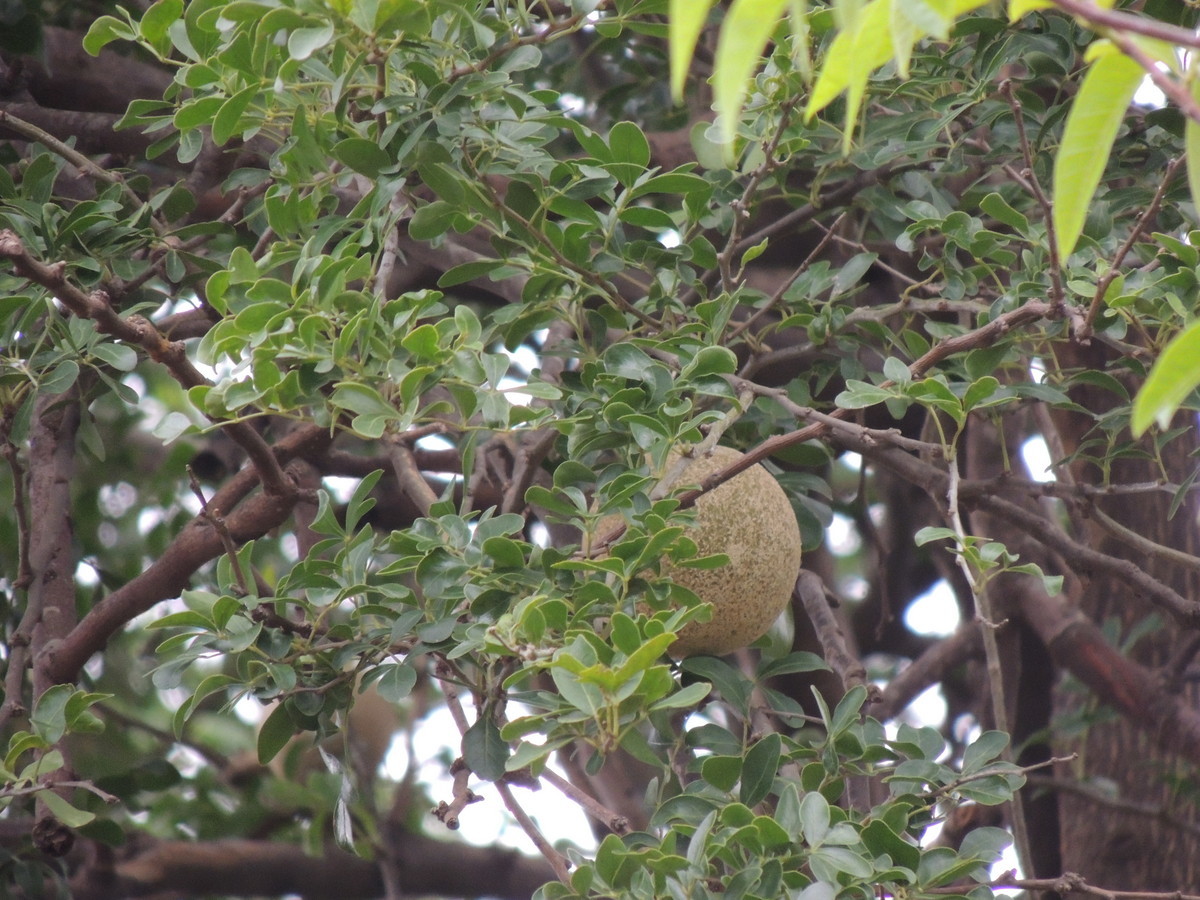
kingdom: Plantae
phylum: Tracheophyta
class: Magnoliopsida
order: Sapindales
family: Rutaceae
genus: Limonia
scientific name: Limonia acidissima
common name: Elephant apple
